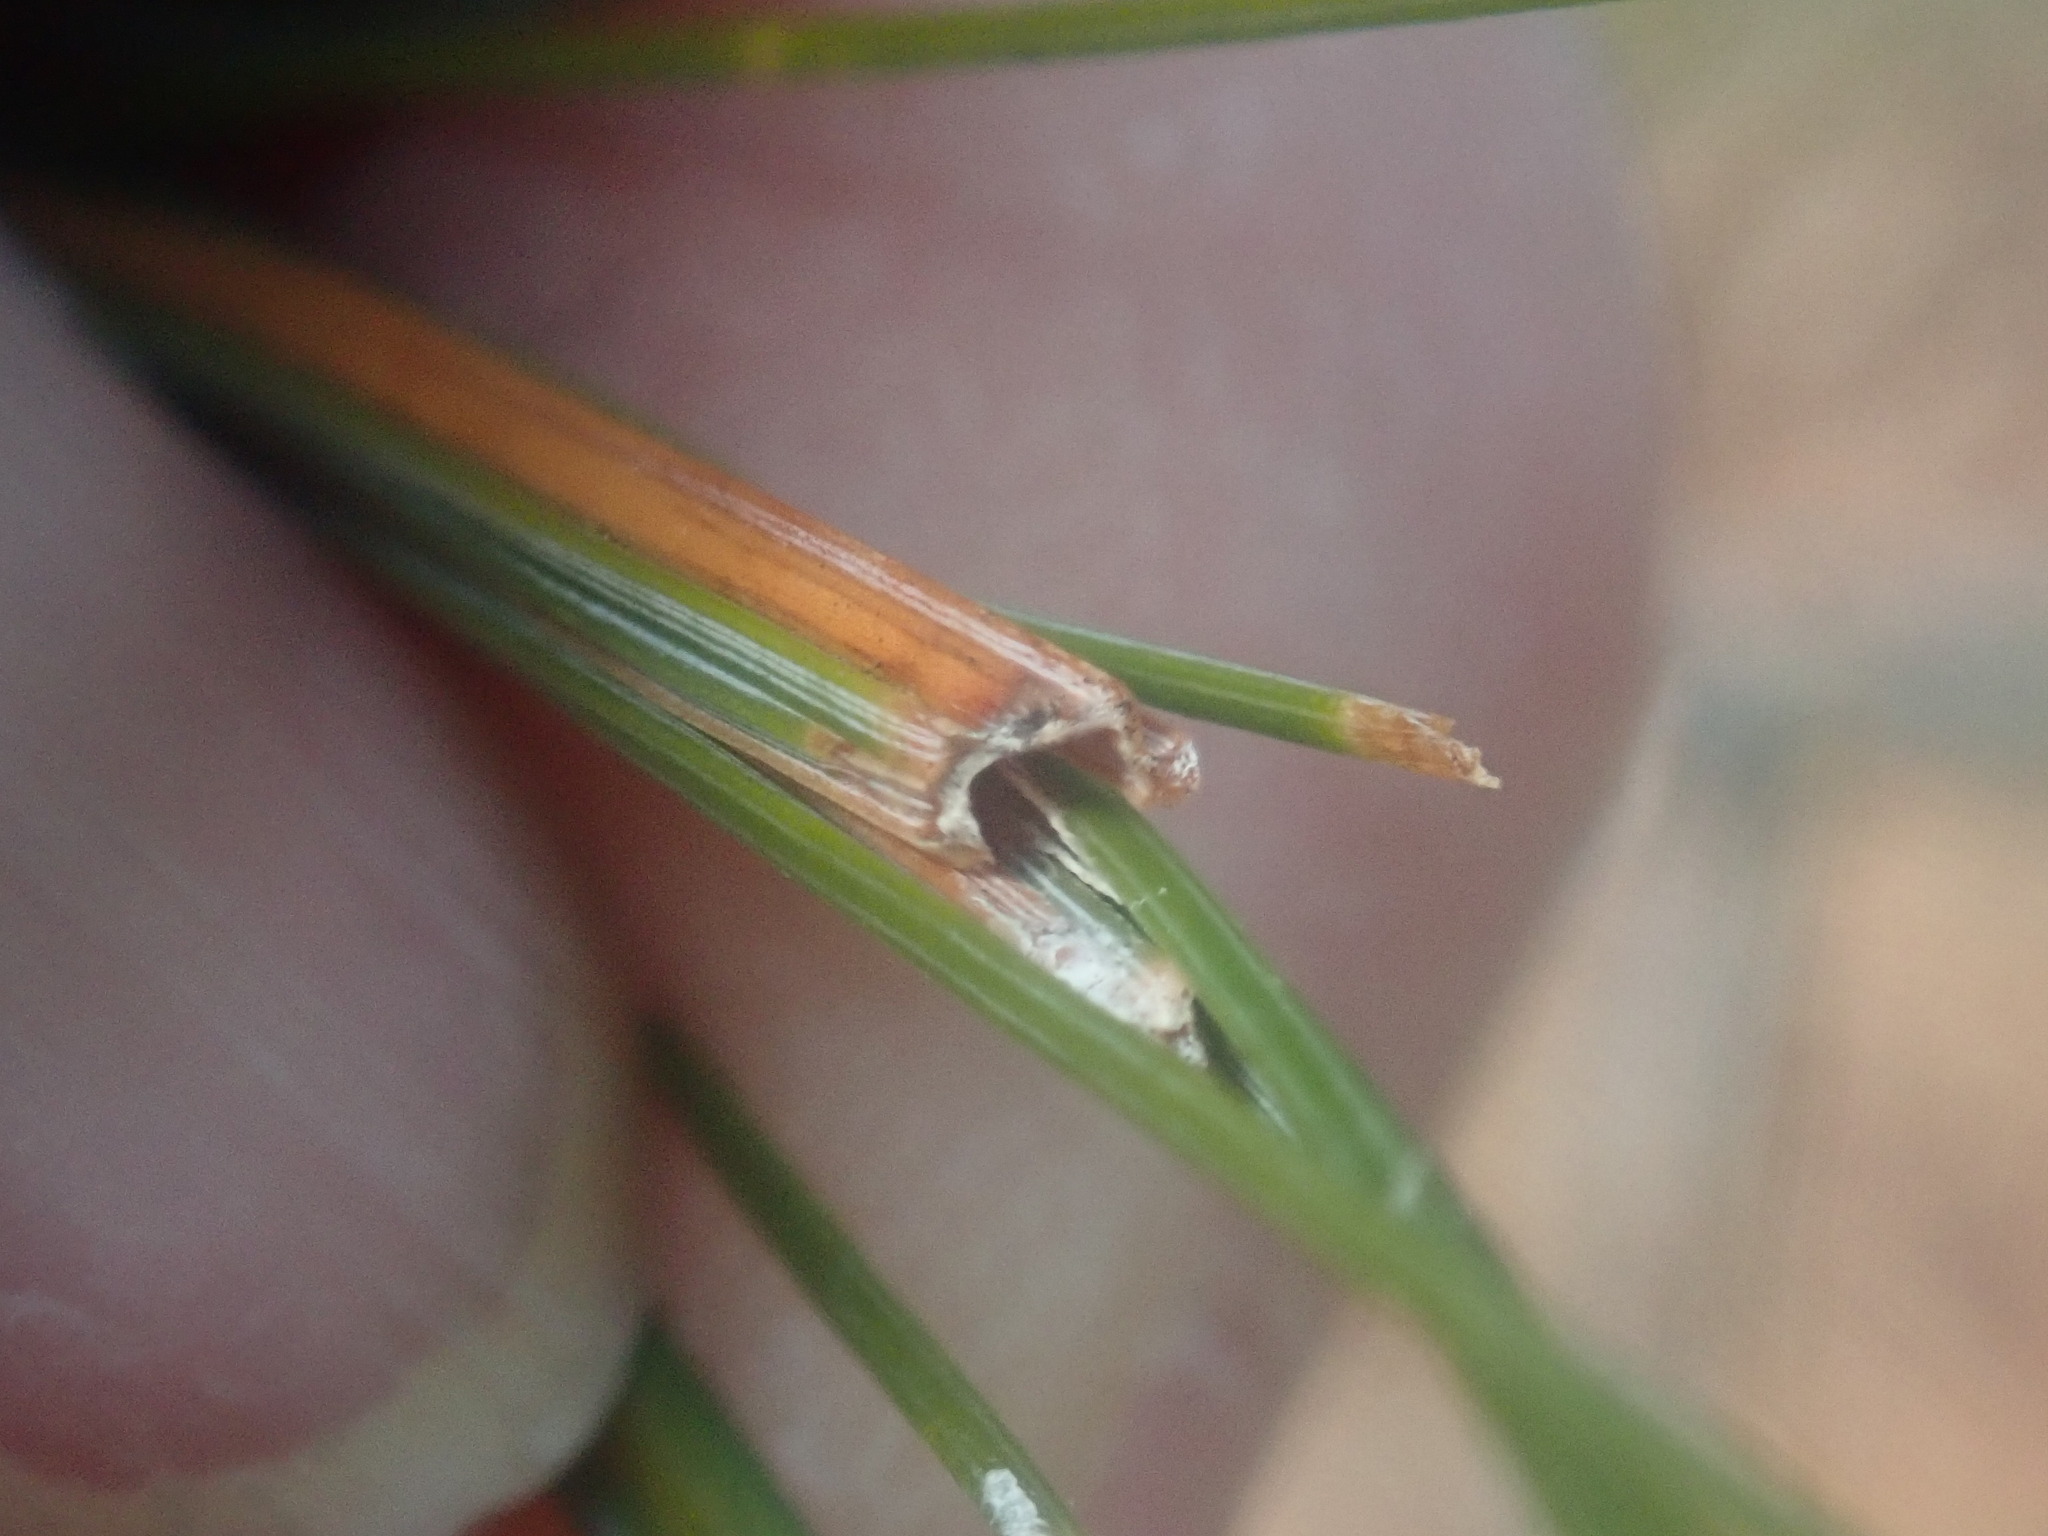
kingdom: Animalia
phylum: Arthropoda
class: Insecta
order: Lepidoptera
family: Tortricidae
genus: Argyrotaenia
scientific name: Argyrotaenia pinatubana
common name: Pine tube moth
